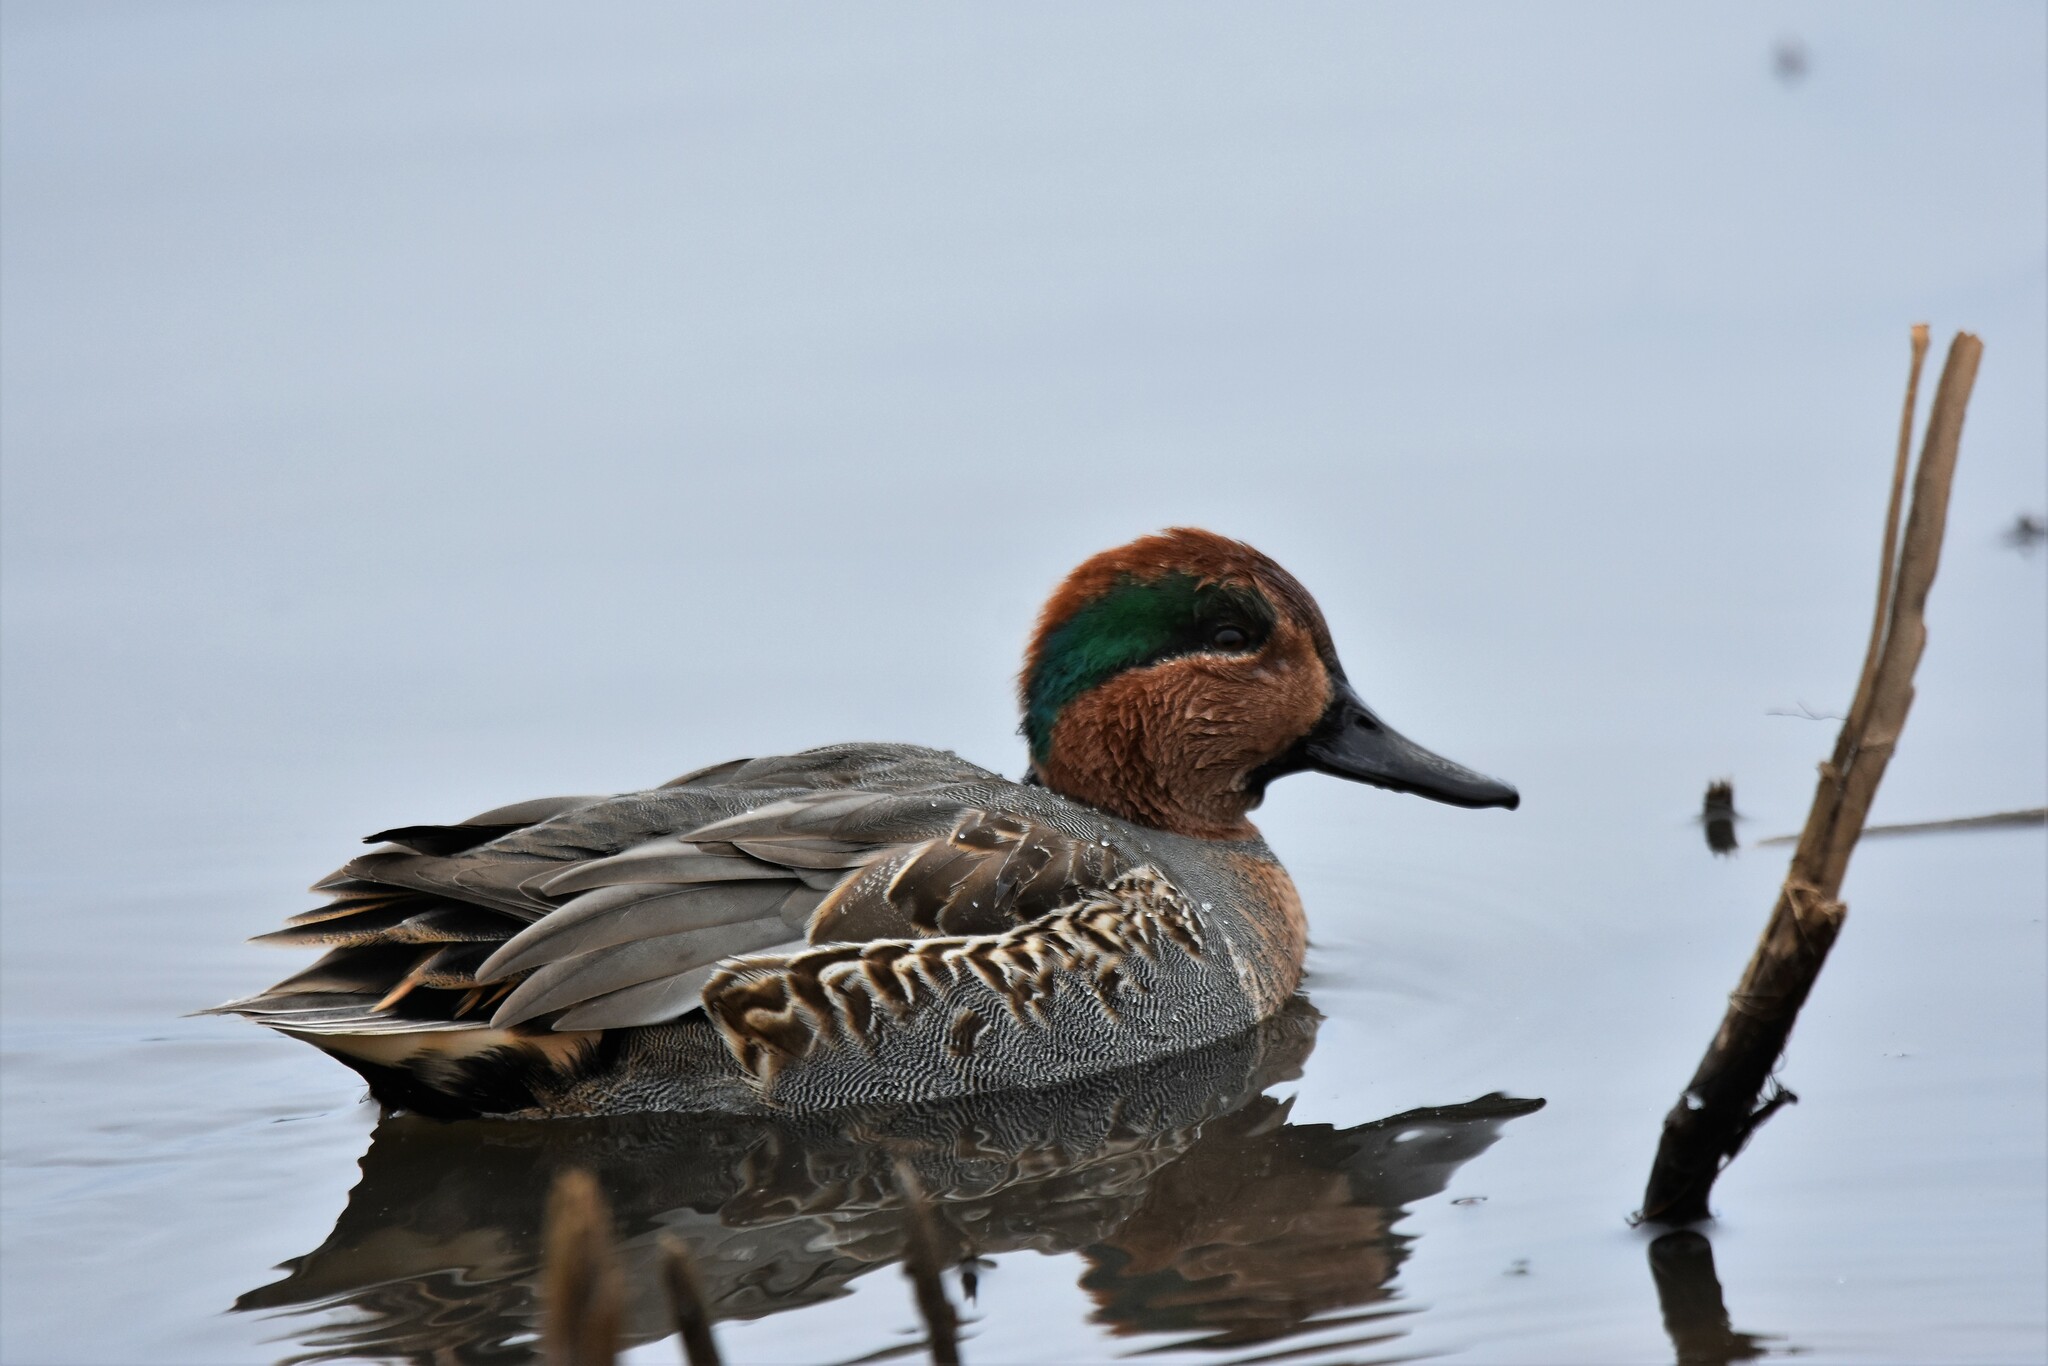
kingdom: Animalia
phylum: Chordata
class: Aves
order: Anseriformes
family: Anatidae
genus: Anas
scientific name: Anas crecca
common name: Eurasian teal
